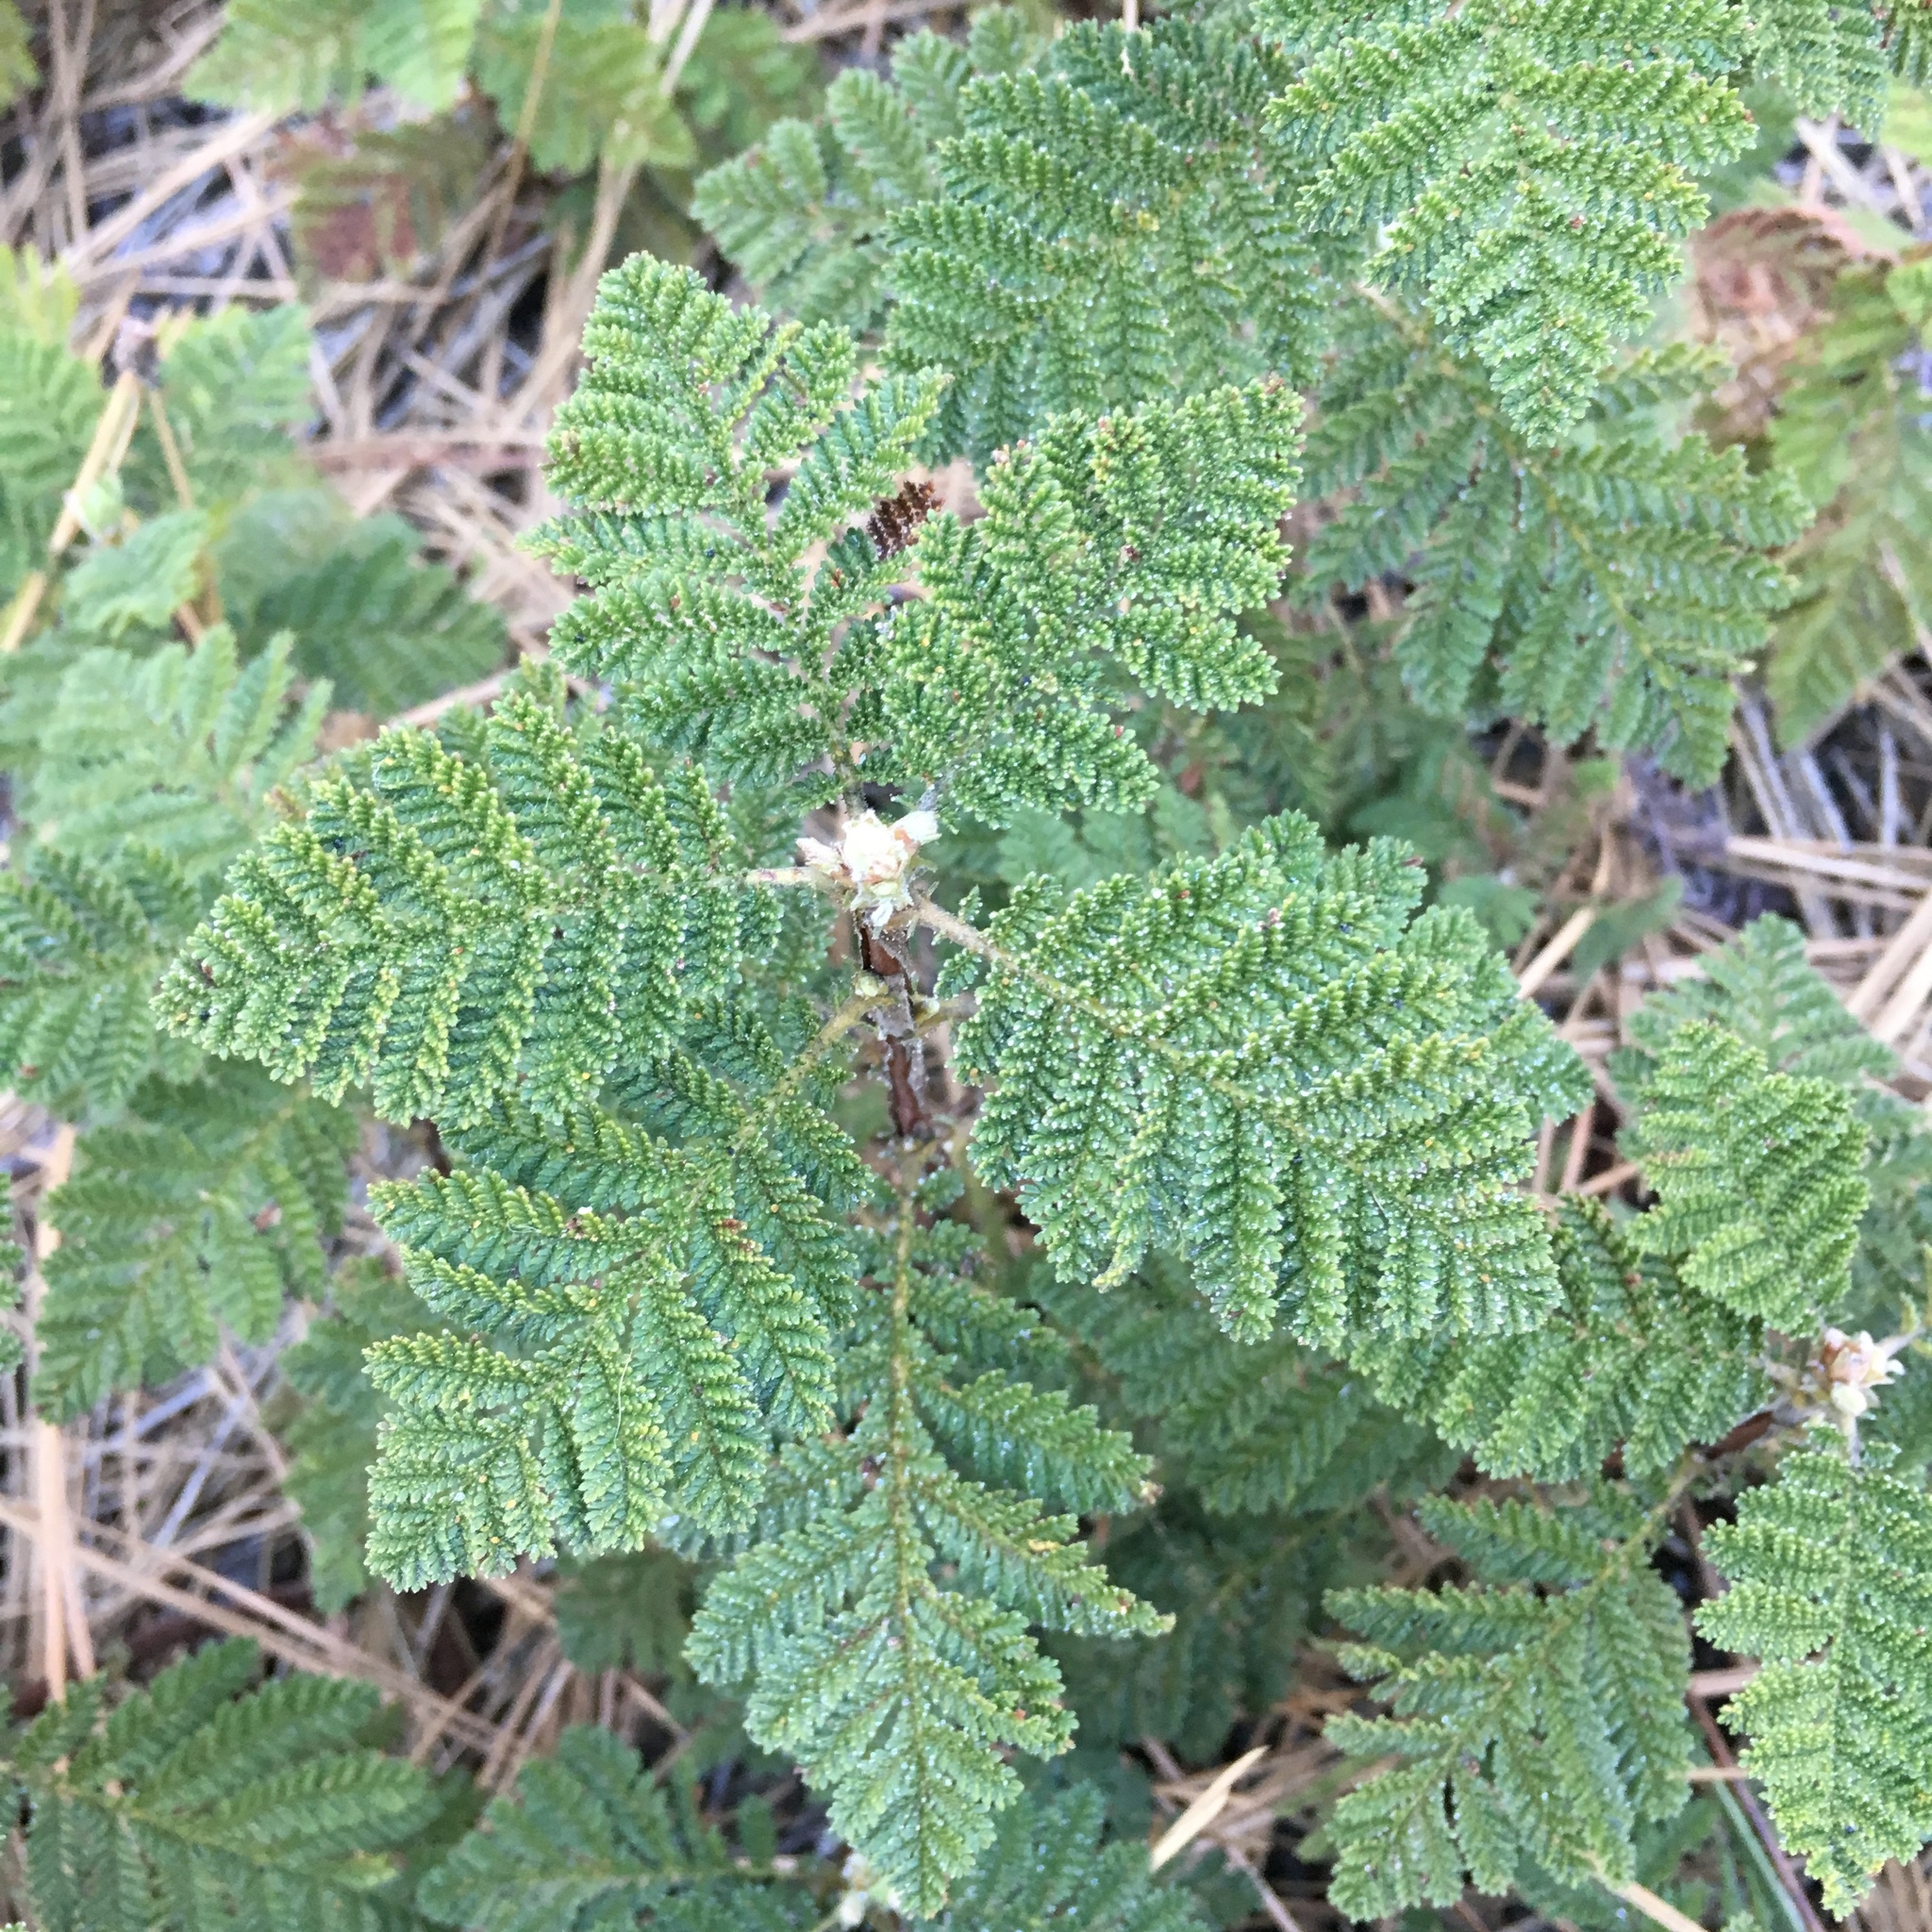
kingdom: Plantae
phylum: Tracheophyta
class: Magnoliopsida
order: Rosales
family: Rosaceae
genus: Chamaebatia
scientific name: Chamaebatia foliolosa
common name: Mountain misery
